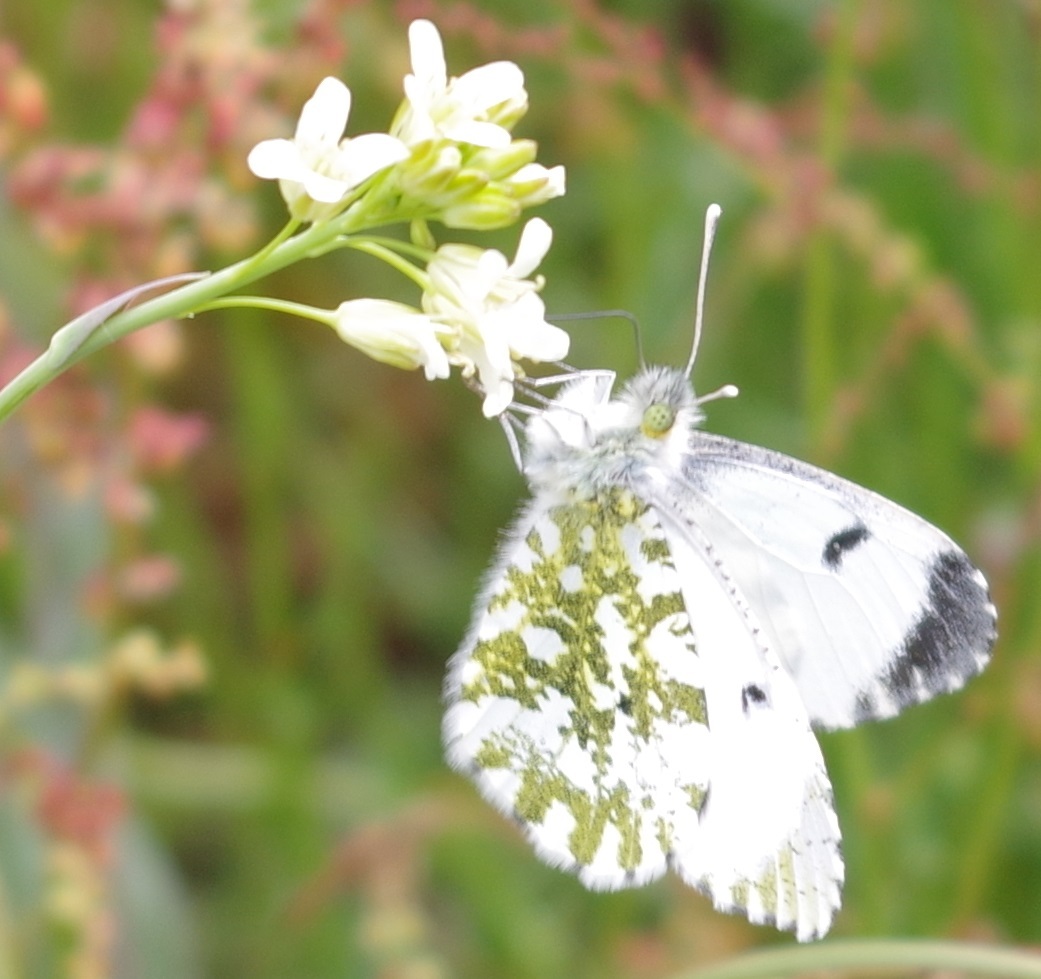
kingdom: Animalia
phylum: Arthropoda
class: Insecta
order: Lepidoptera
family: Pieridae
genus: Anthocharis
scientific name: Anthocharis cardamines
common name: Orange-tip
